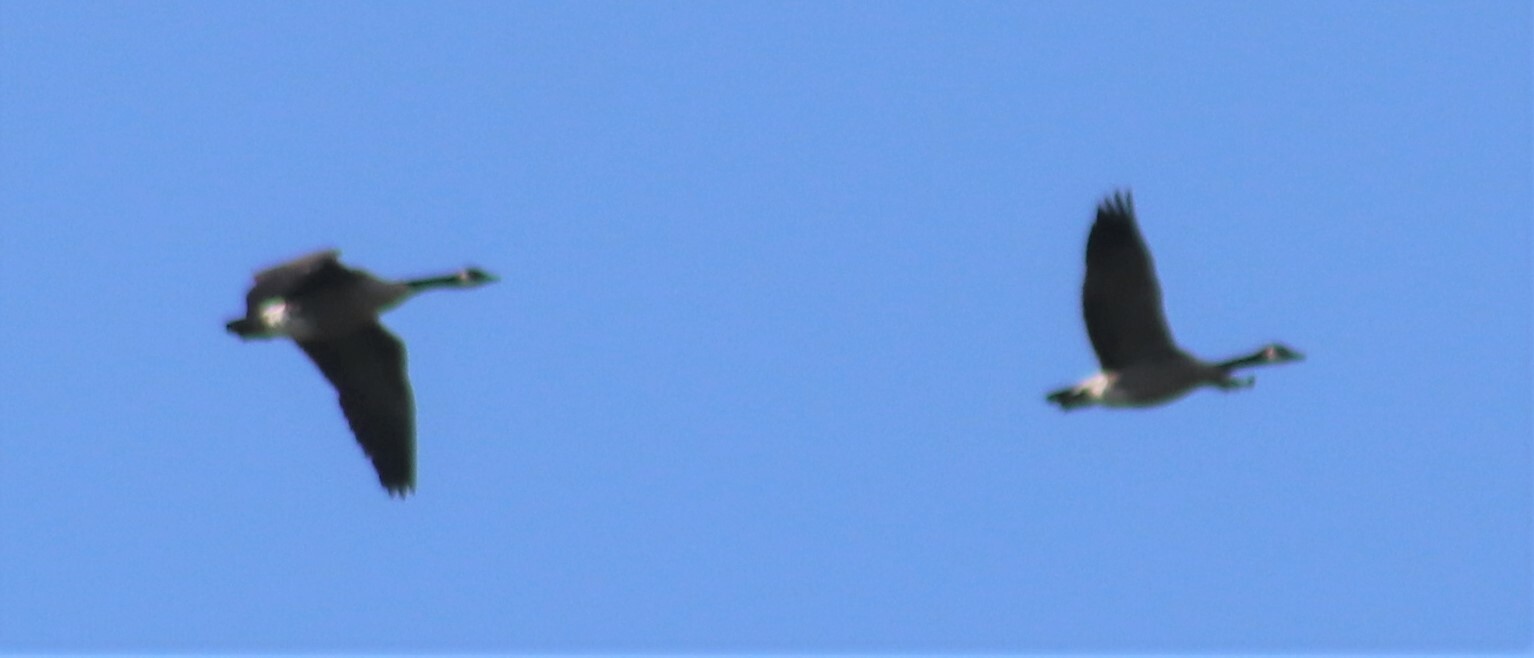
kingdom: Animalia
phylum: Chordata
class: Aves
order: Anseriformes
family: Anatidae
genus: Branta
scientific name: Branta canadensis
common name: Canada goose
